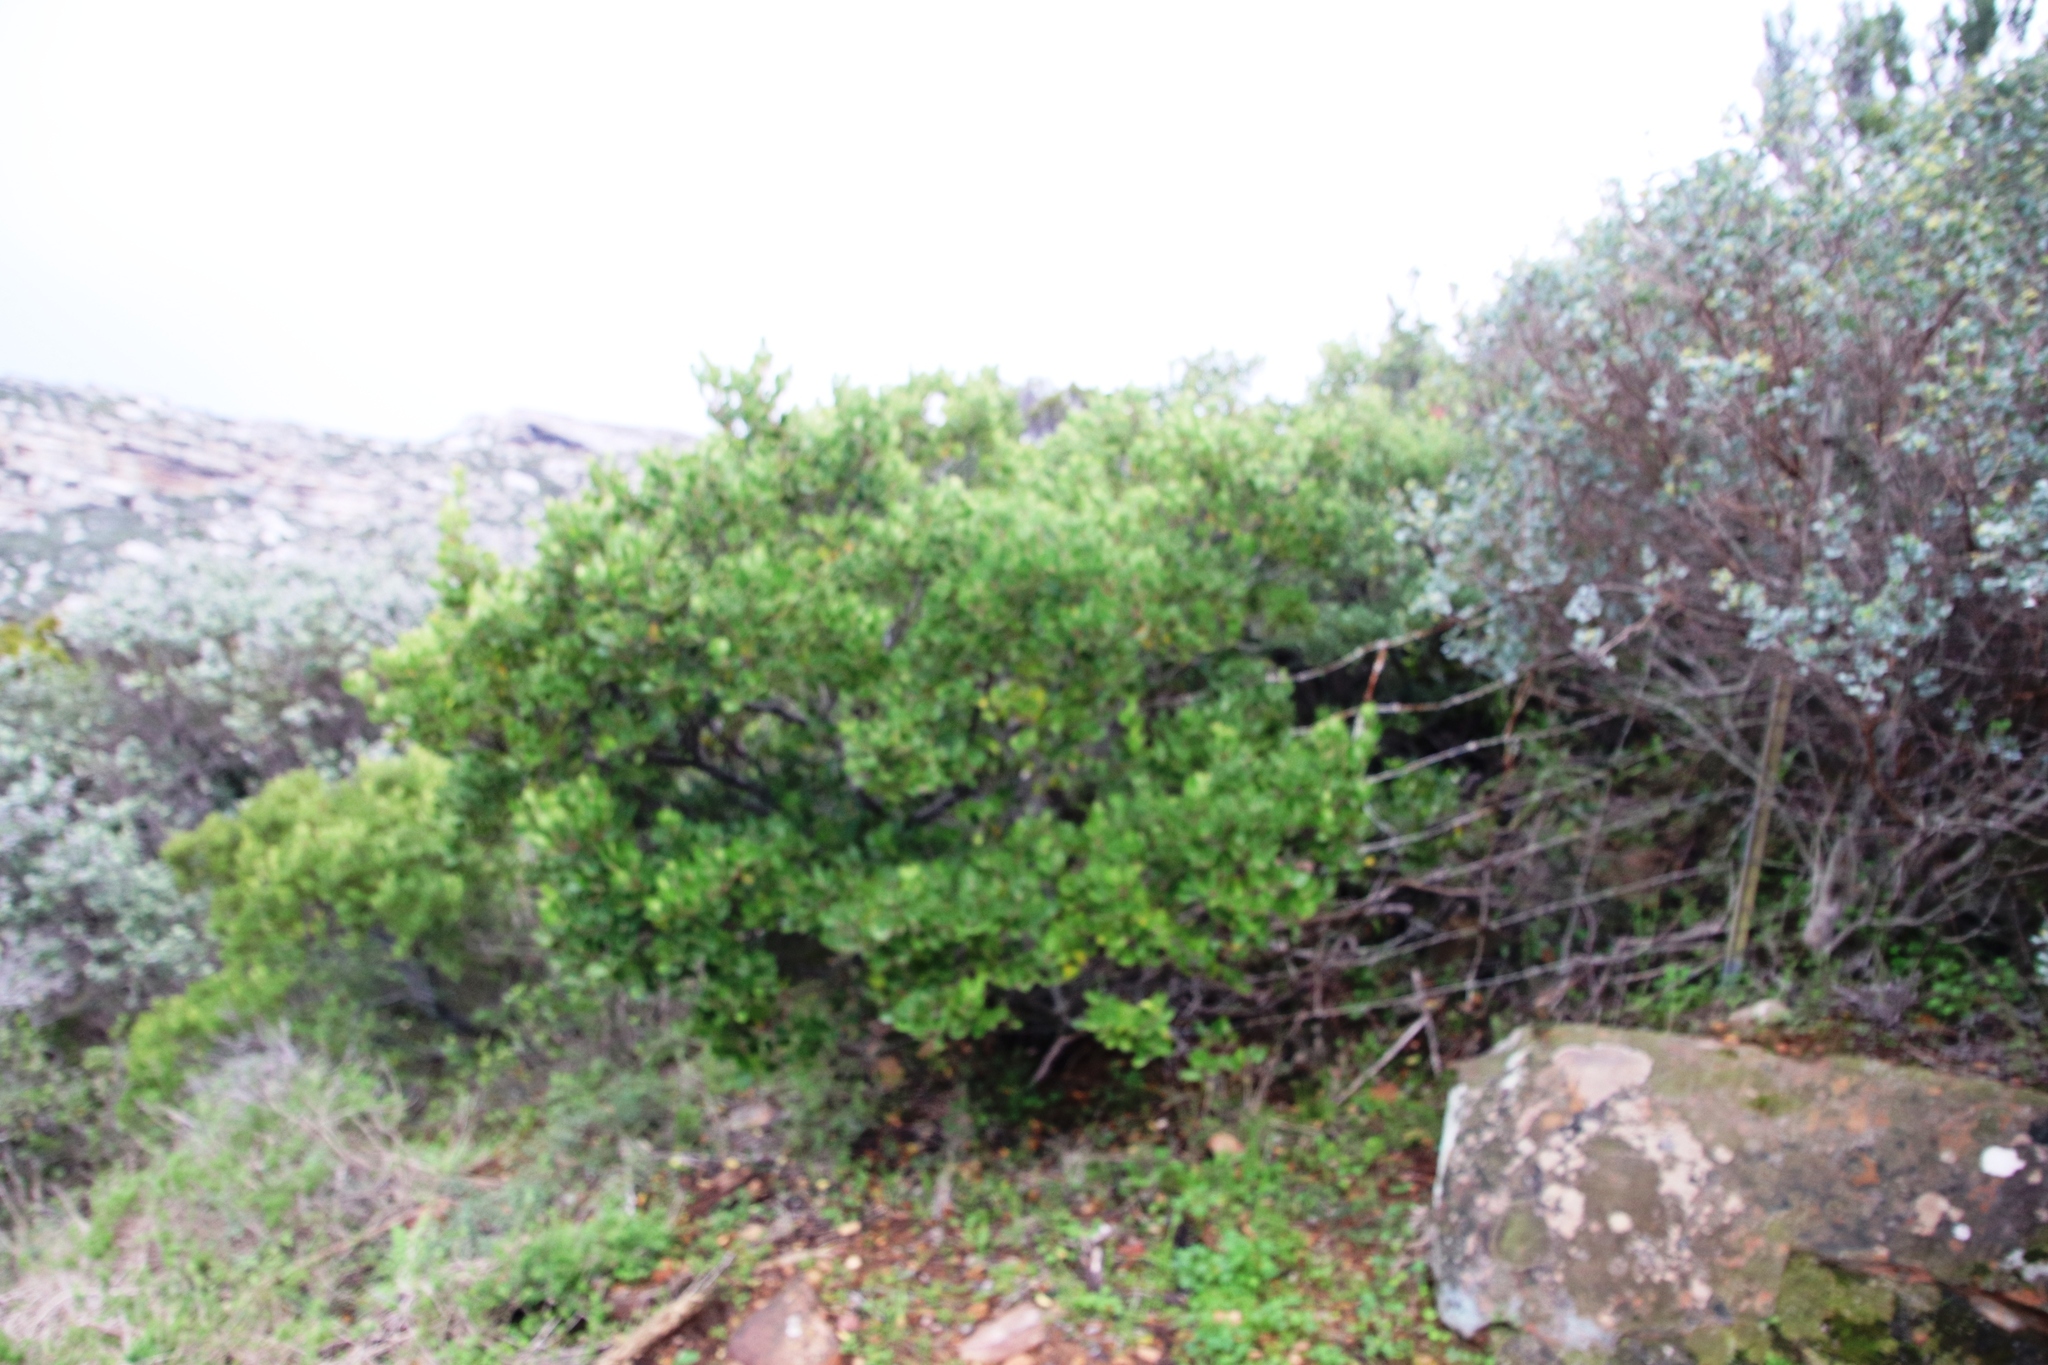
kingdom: Plantae
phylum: Tracheophyta
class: Magnoliopsida
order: Celastrales
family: Celastraceae
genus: Gymnosporia
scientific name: Gymnosporia laurina
